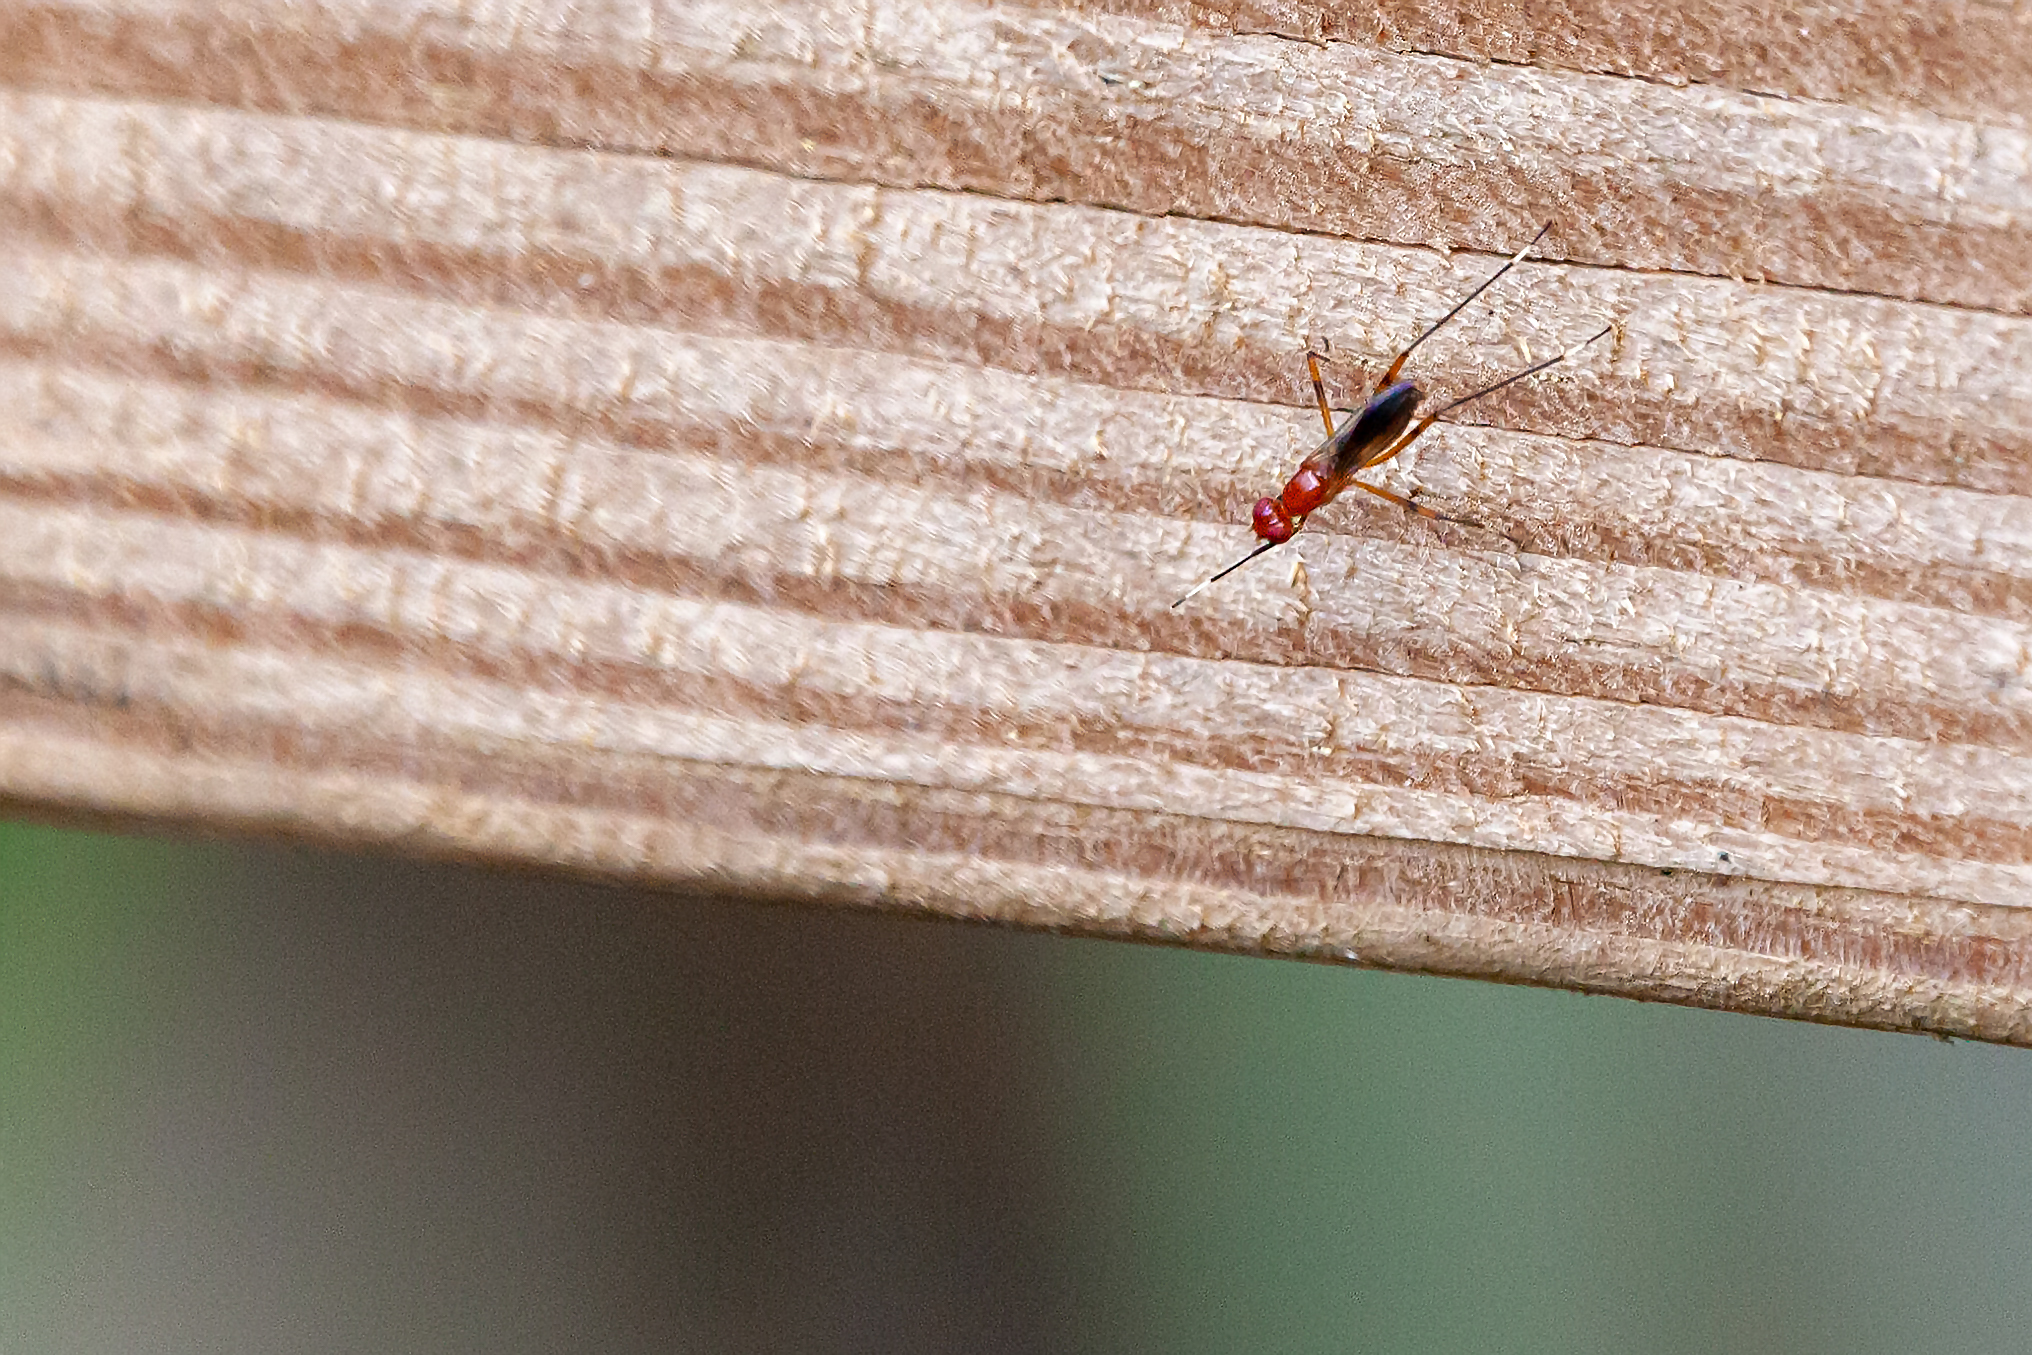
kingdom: Animalia
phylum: Arthropoda
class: Insecta
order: Diptera
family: Micropezidae
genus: Grallipeza
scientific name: Grallipeza nebulosa
